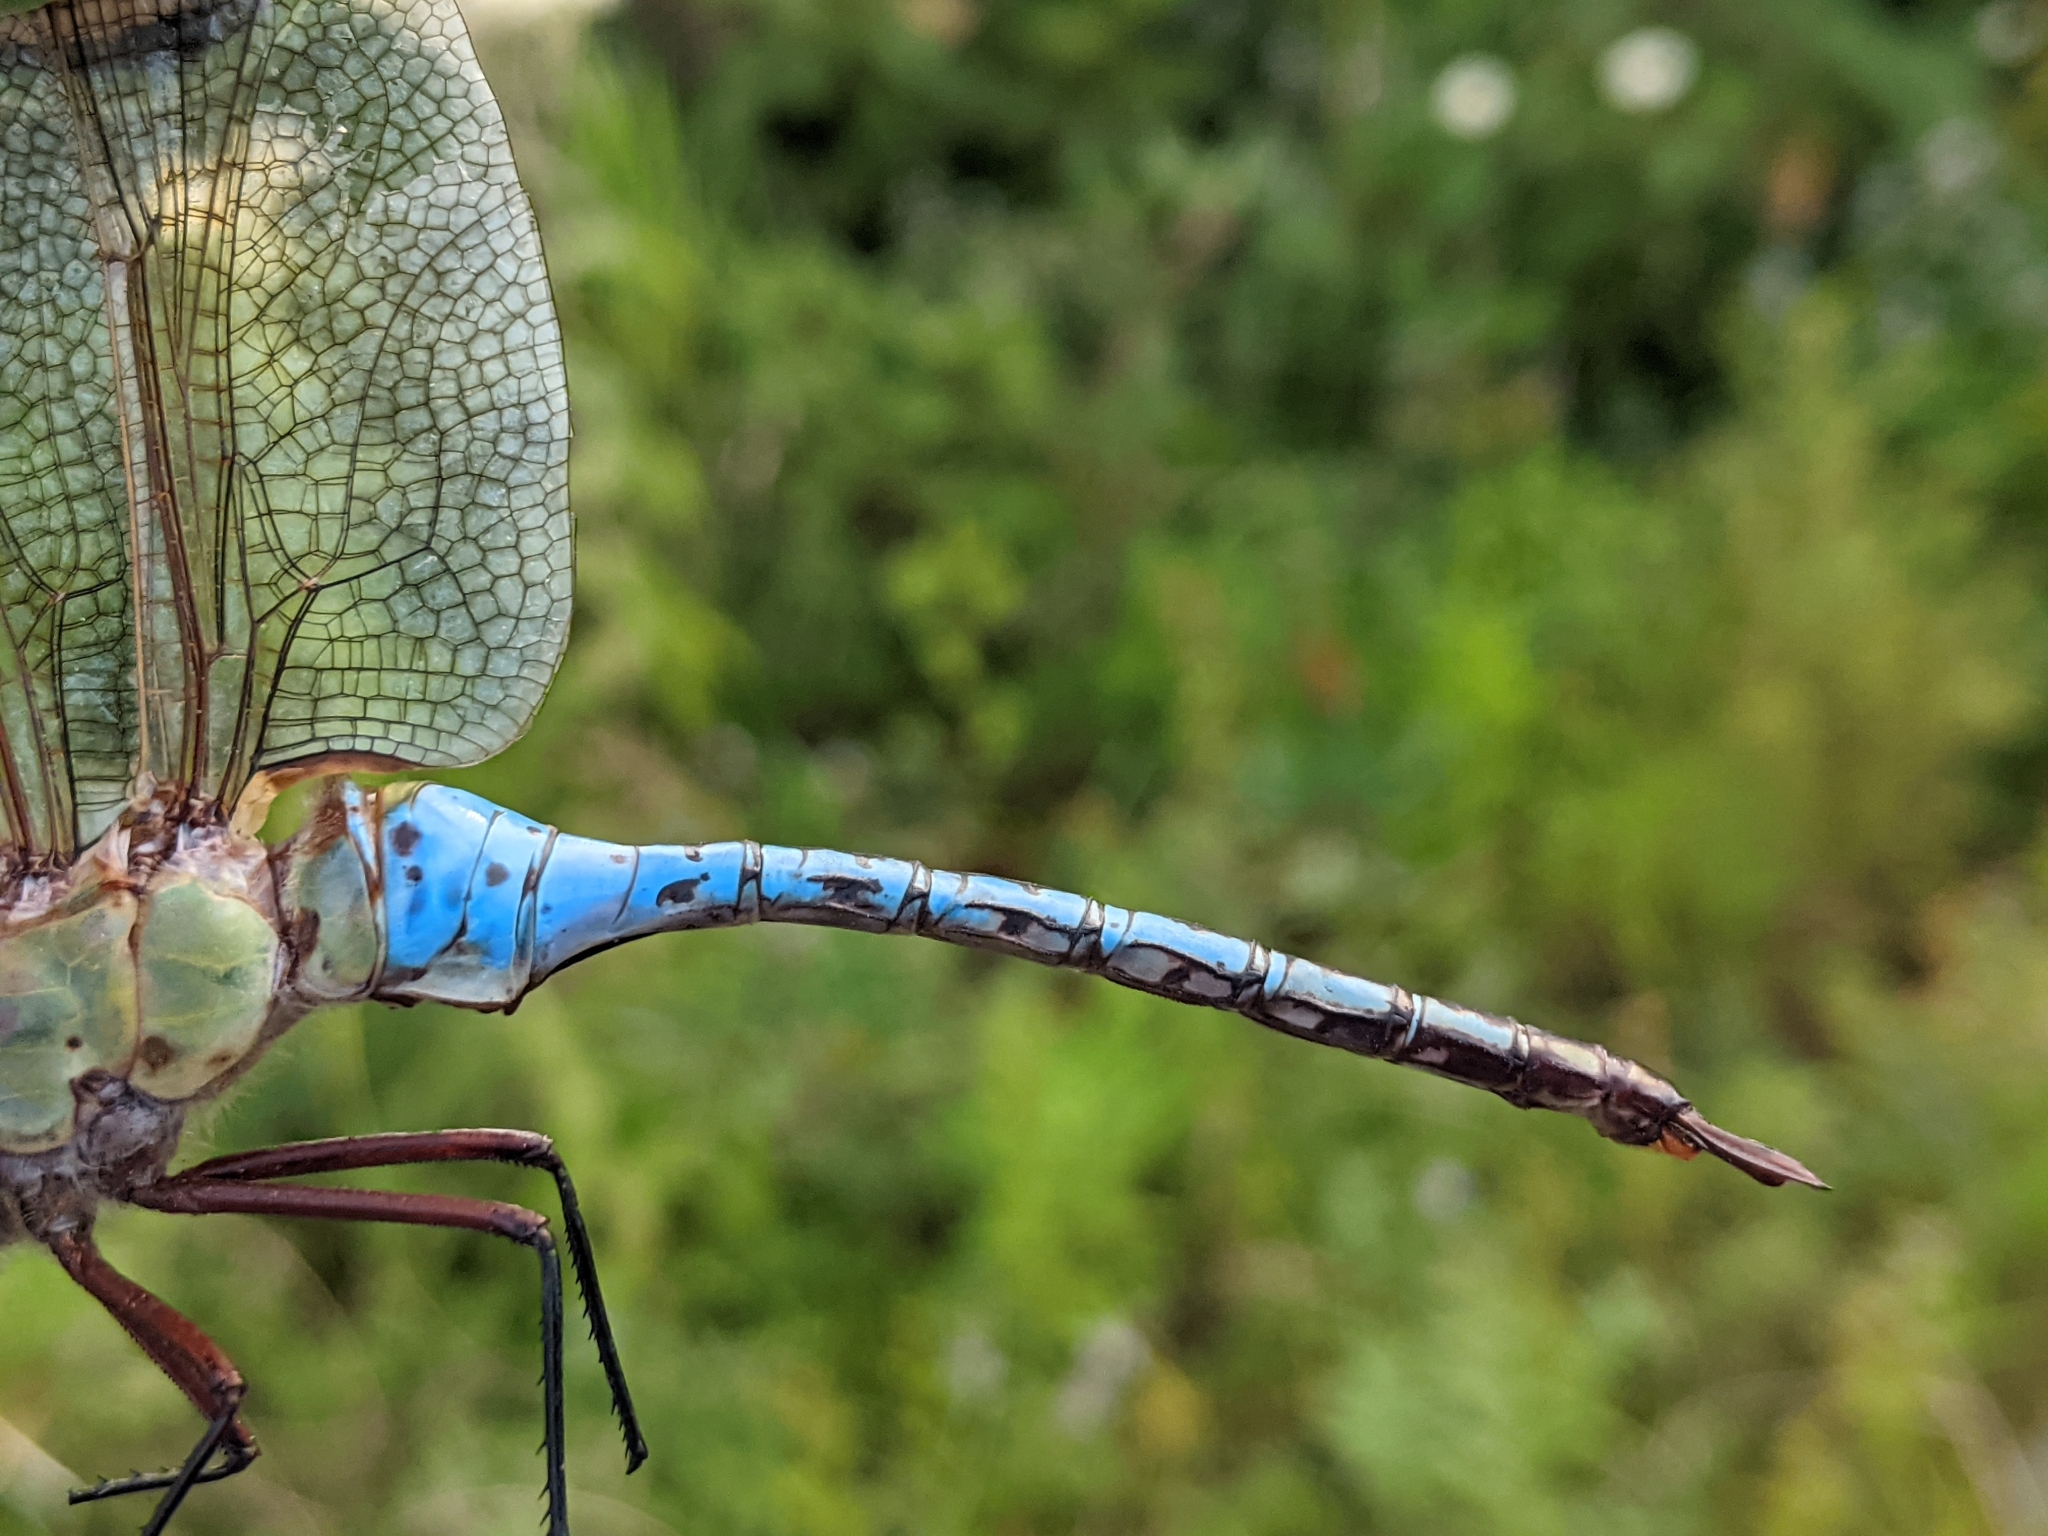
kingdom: Animalia
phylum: Arthropoda
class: Insecta
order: Odonata
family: Aeshnidae
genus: Anax
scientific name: Anax junius
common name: Common green darner
